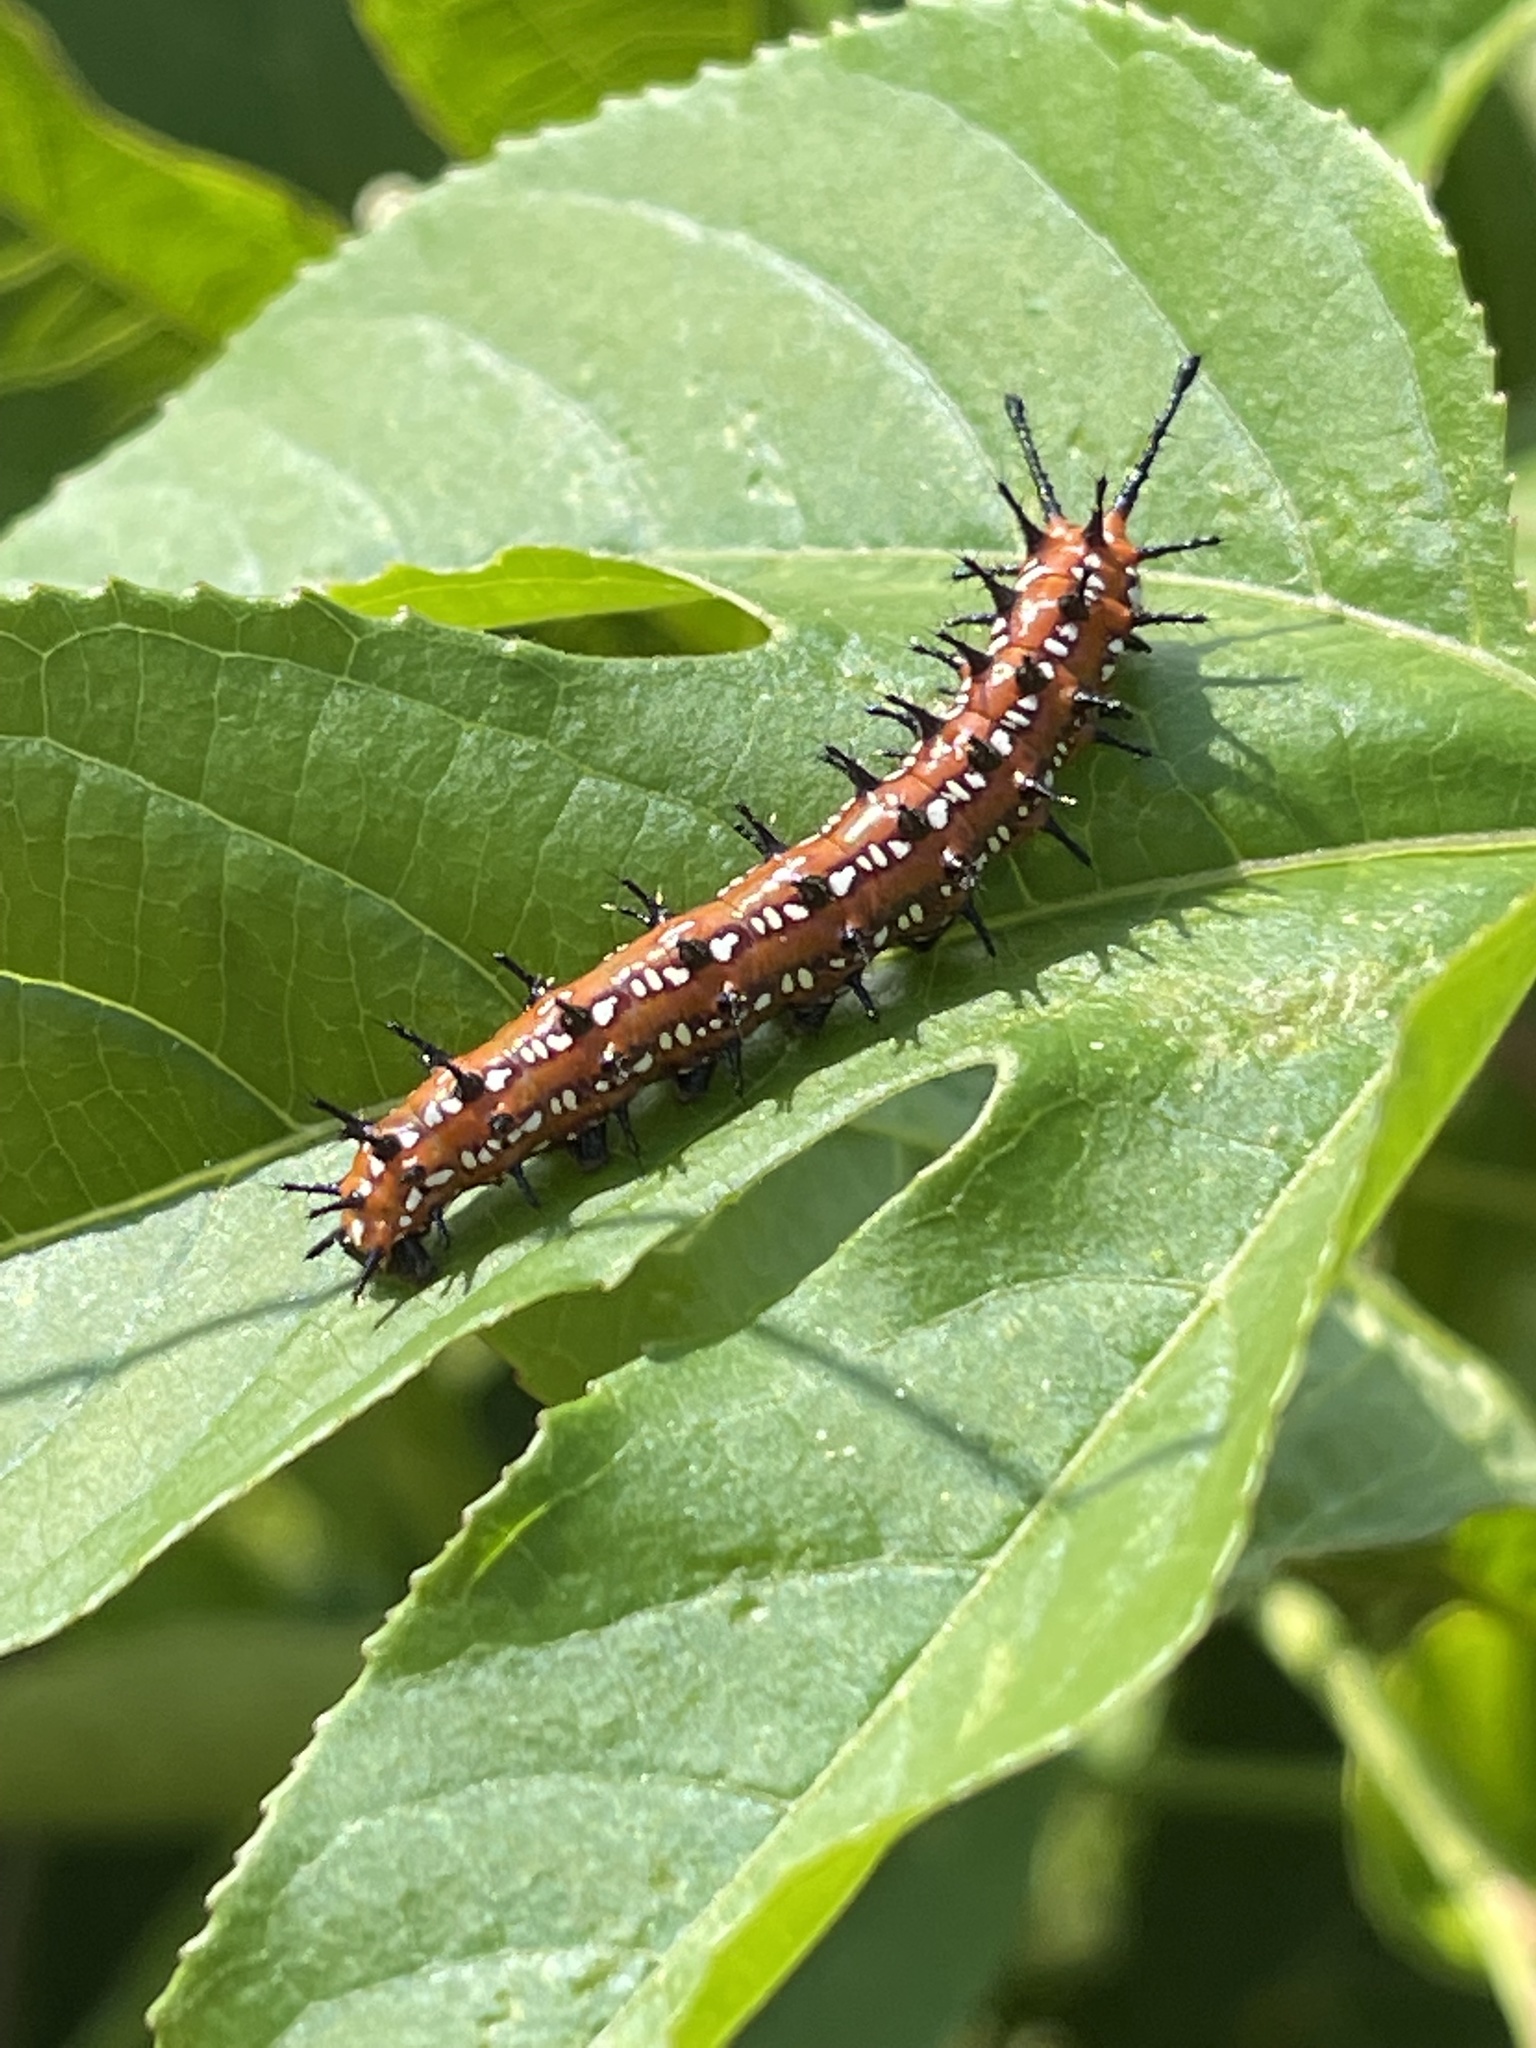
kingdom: Animalia
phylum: Arthropoda
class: Insecta
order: Lepidoptera
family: Nymphalidae
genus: Euptoieta
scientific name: Euptoieta claudia
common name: Variegated fritillary
